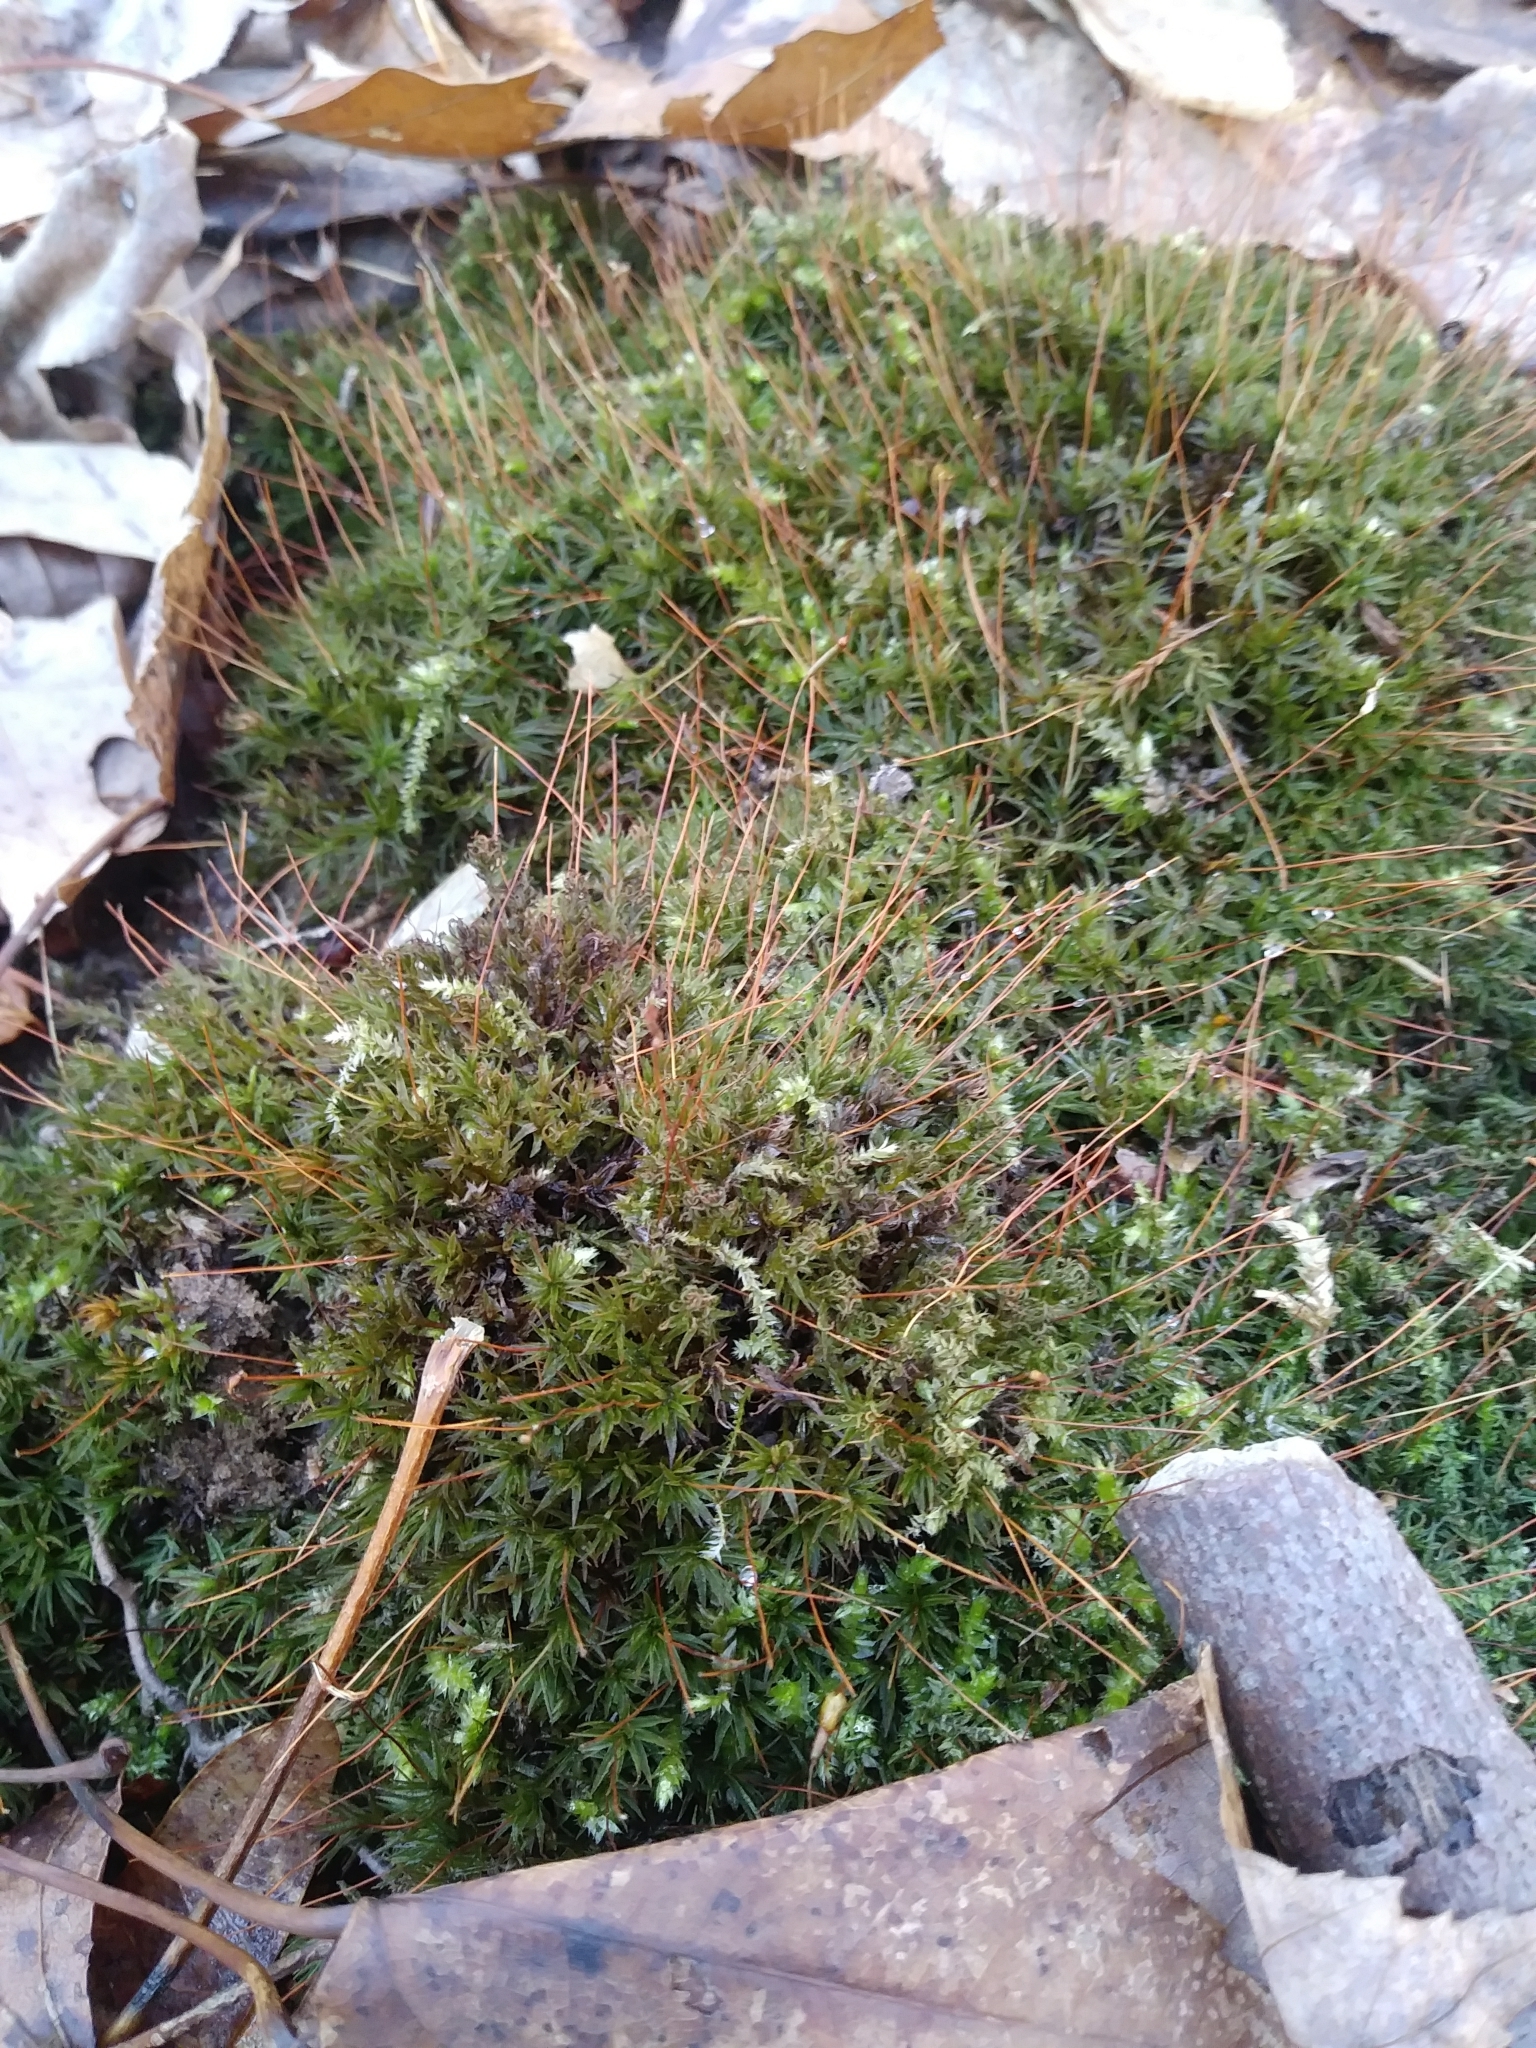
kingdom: Plantae
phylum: Bryophyta
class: Polytrichopsida
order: Polytrichales
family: Polytrichaceae
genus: Atrichum
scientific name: Atrichum angustatum
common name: Lesser smoothcap
